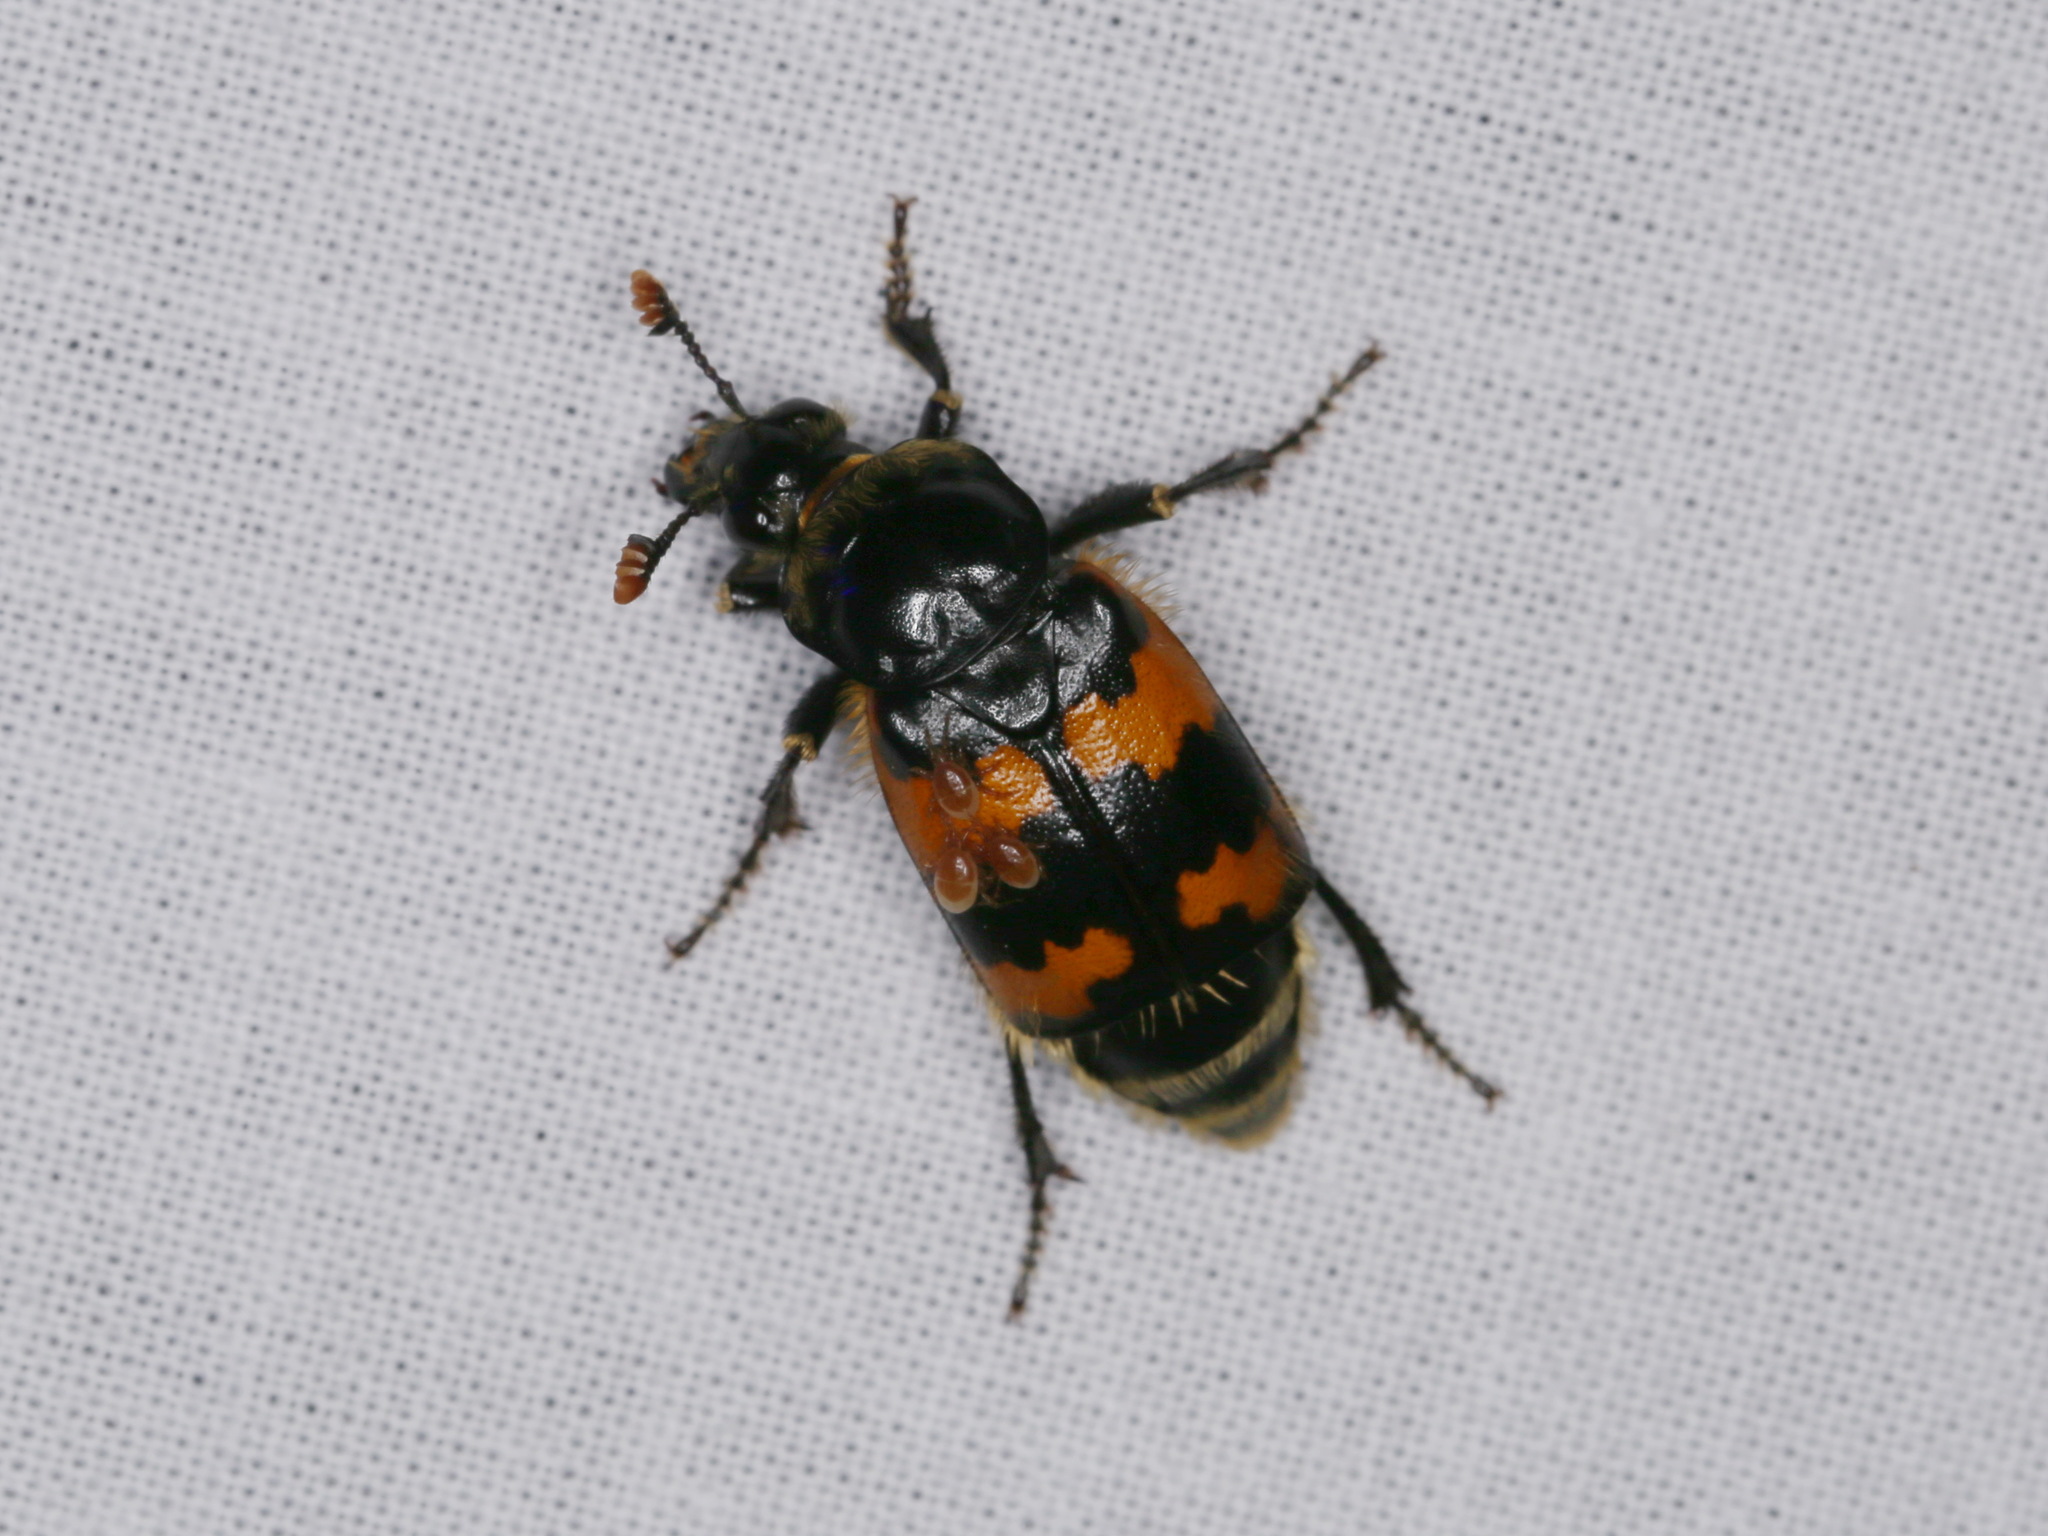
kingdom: Animalia
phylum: Arthropoda
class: Arachnida
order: Mesostigmata
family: Parasitidae
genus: Poecilochirus
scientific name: Poecilochirus
